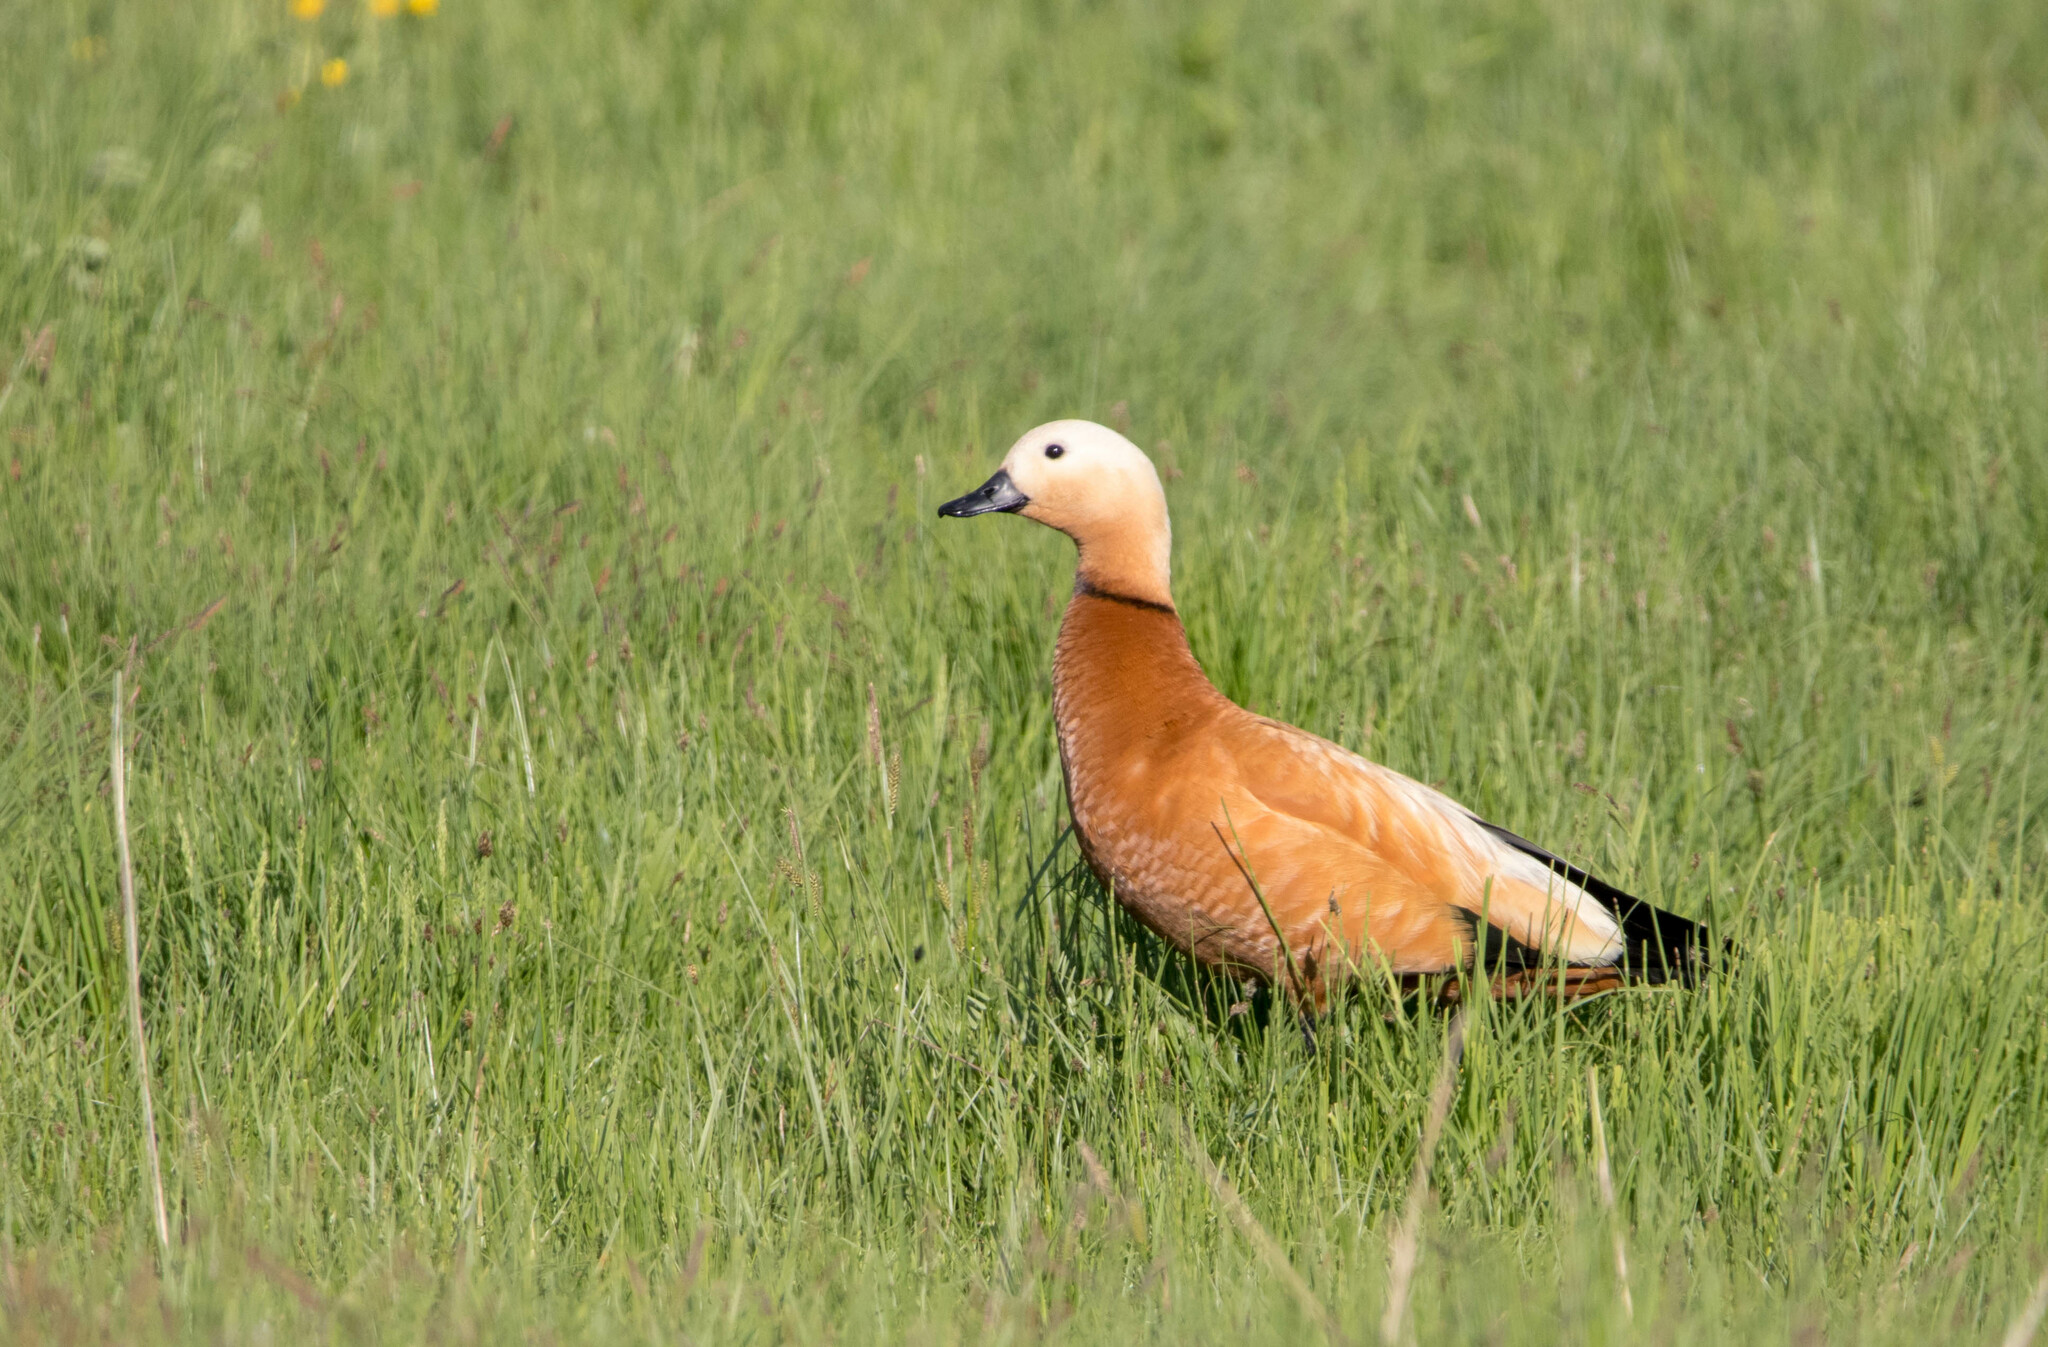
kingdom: Animalia
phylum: Chordata
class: Aves
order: Anseriformes
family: Anatidae
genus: Tadorna
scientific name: Tadorna ferruginea
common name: Ruddy shelduck
